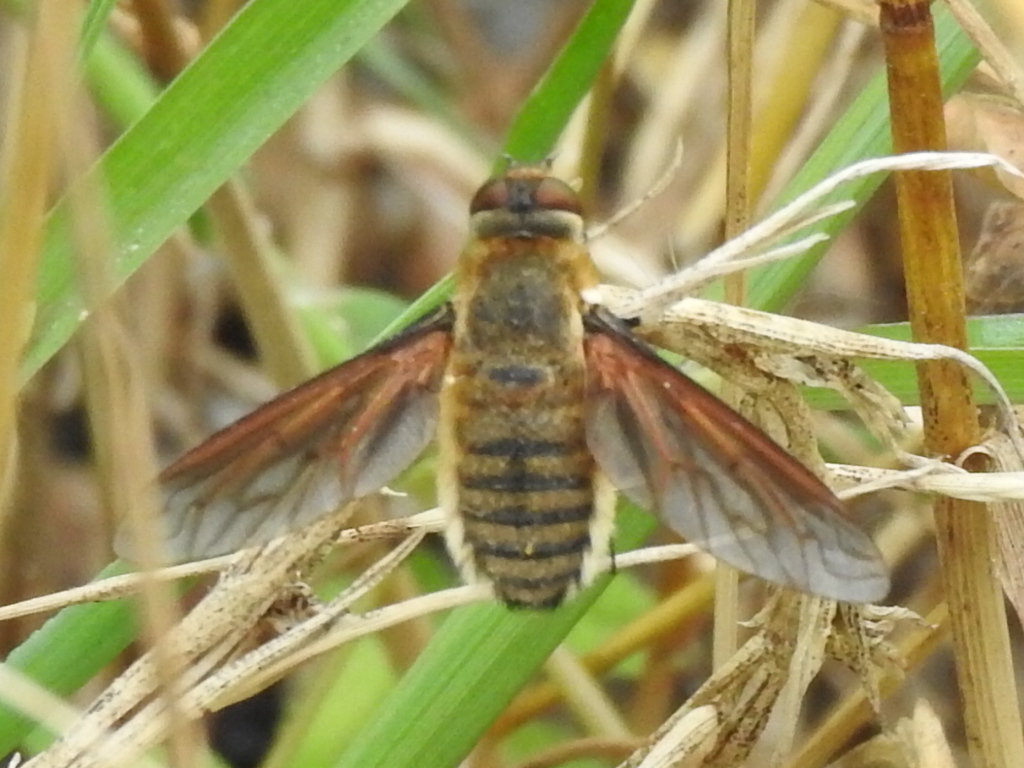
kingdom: Animalia
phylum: Arthropoda
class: Insecta
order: Diptera
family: Bombyliidae
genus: Poecilanthrax
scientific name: Poecilanthrax lucifer
